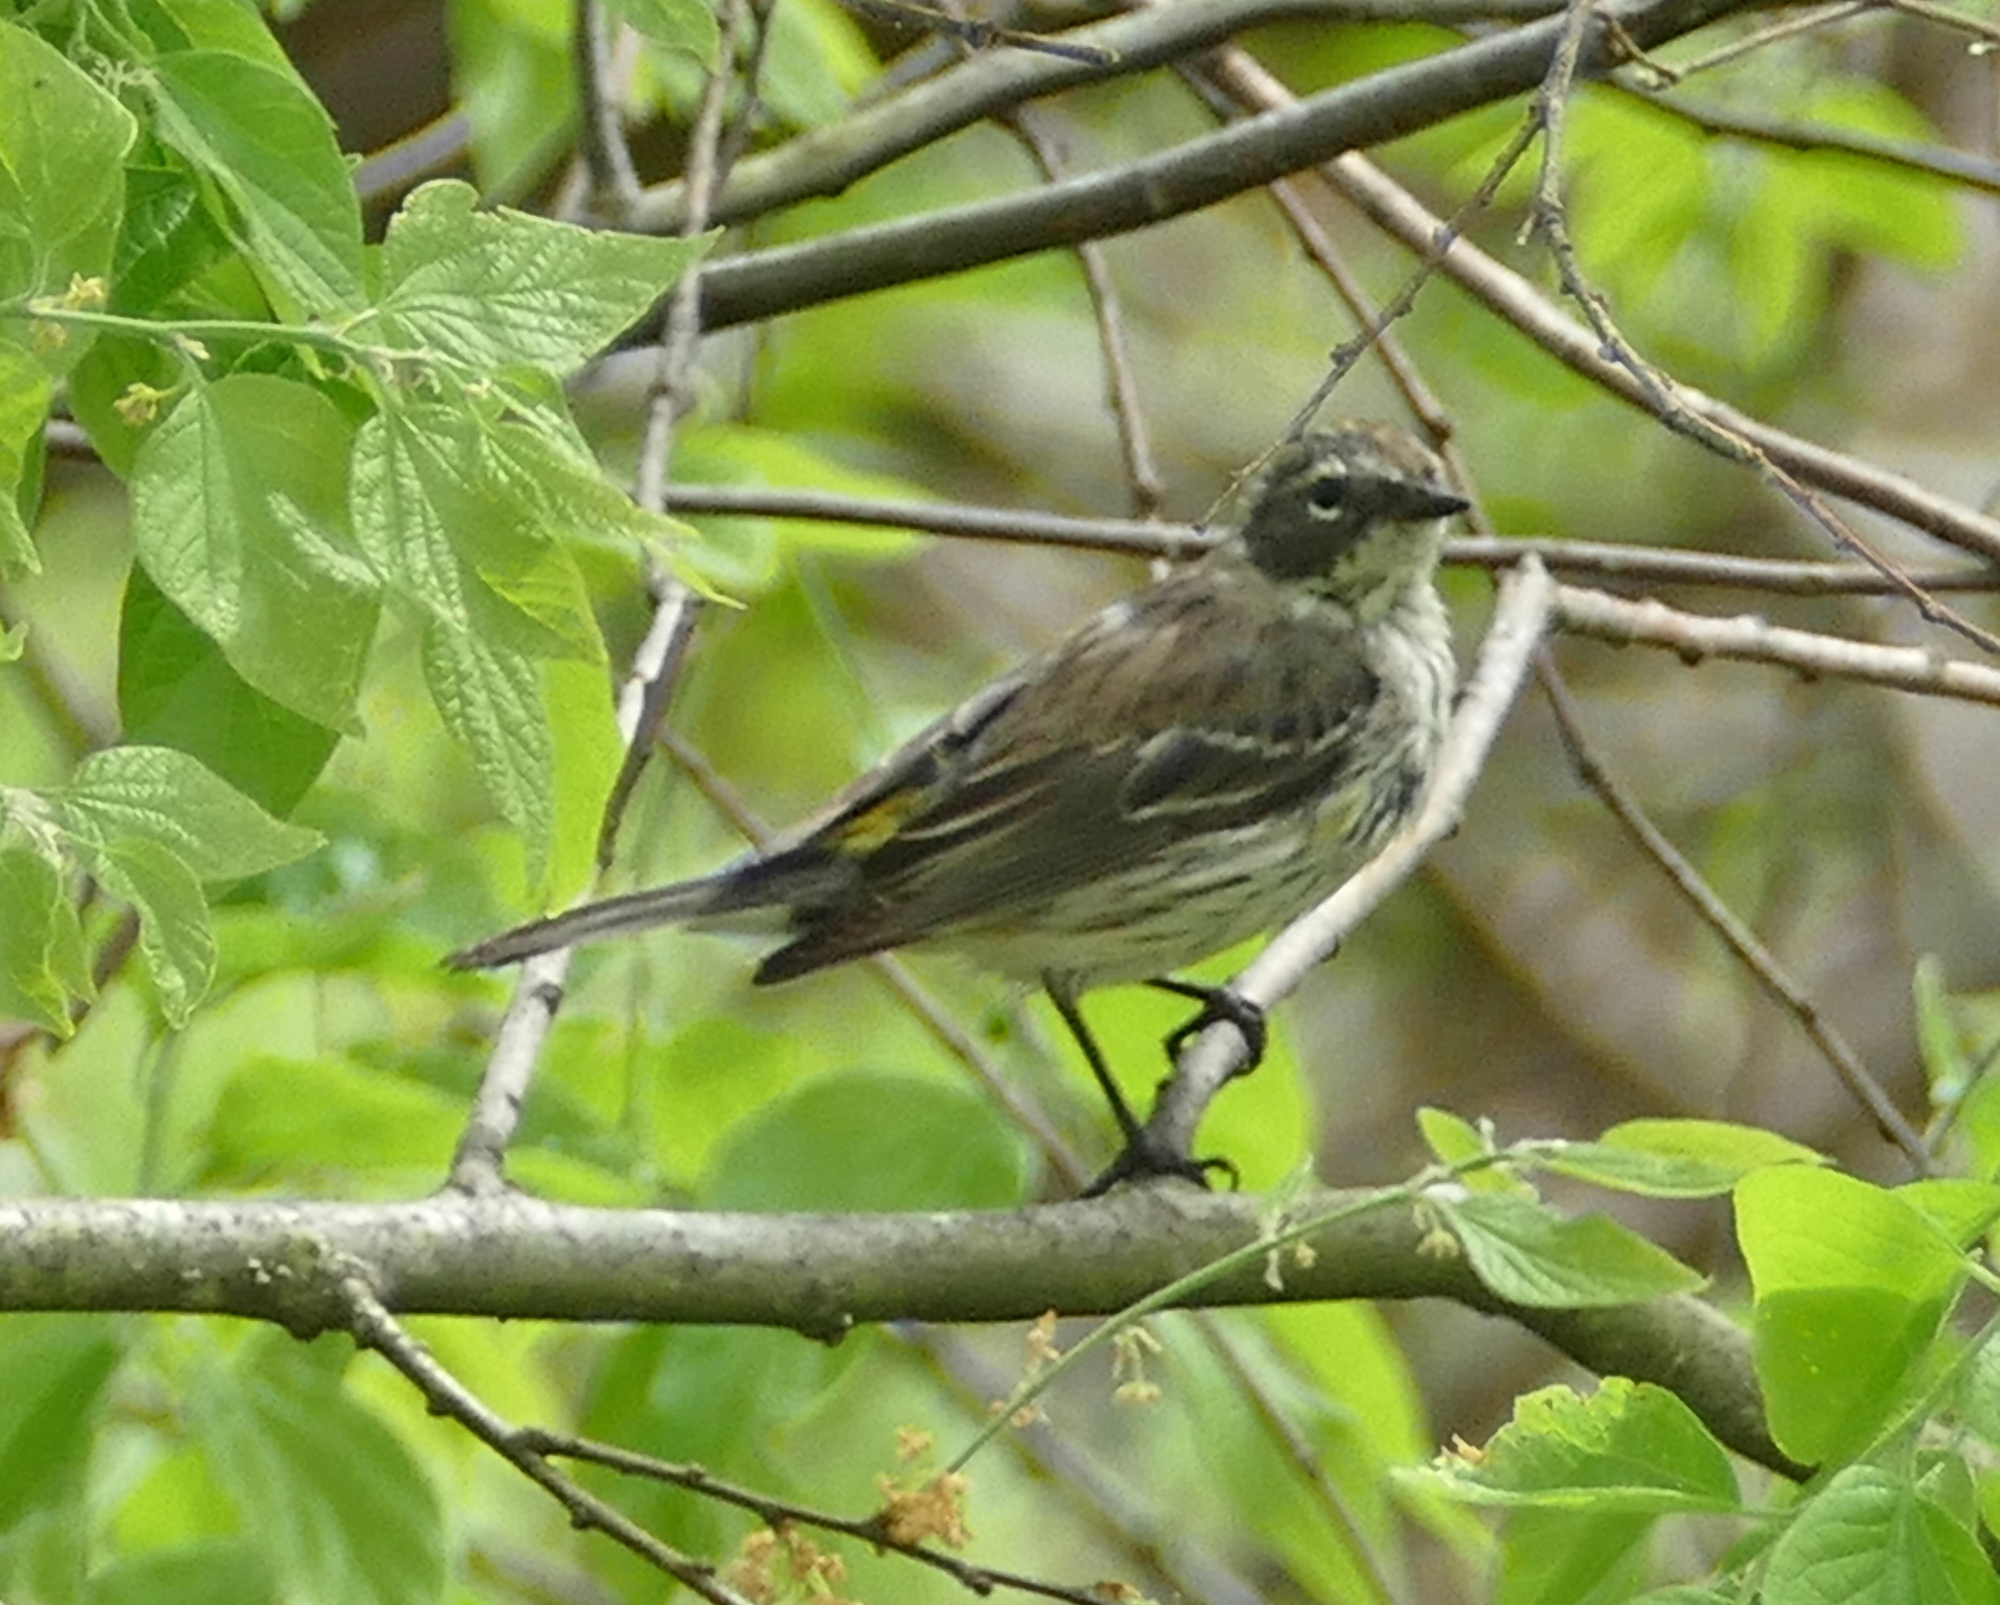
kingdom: Animalia
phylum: Chordata
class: Aves
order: Passeriformes
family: Parulidae
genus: Setophaga
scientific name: Setophaga coronata
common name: Myrtle warbler
